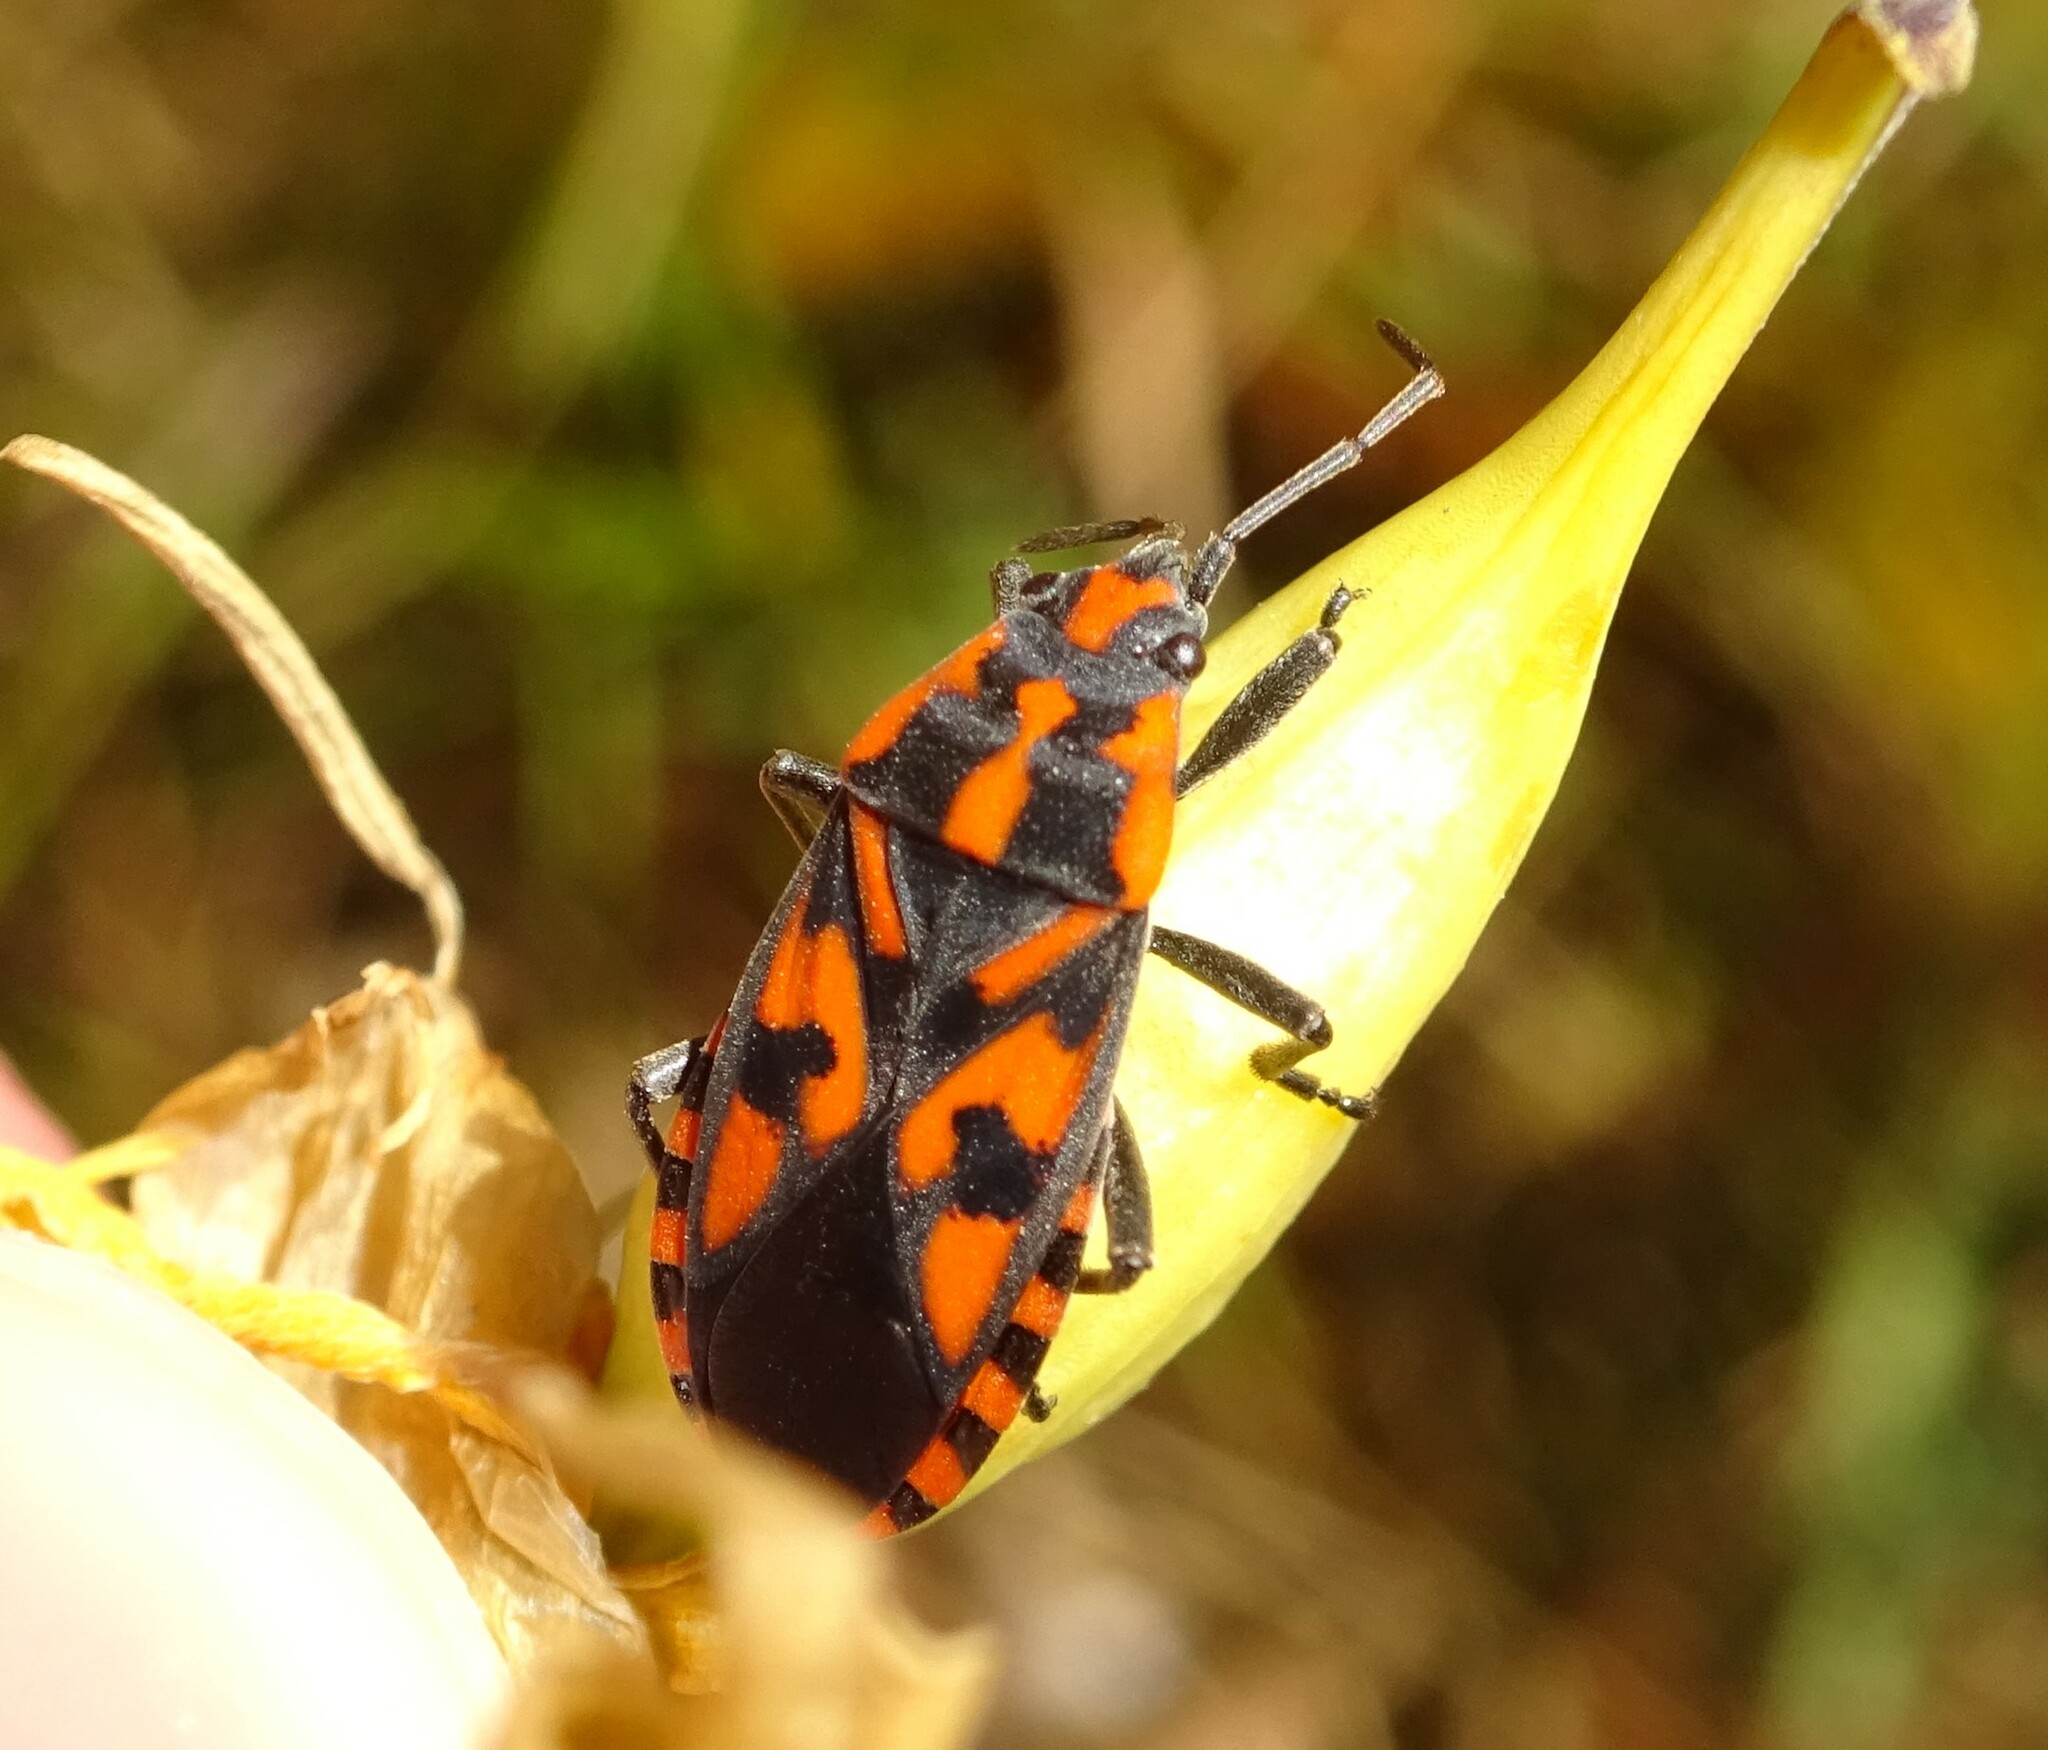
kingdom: Animalia
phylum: Arthropoda
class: Insecta
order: Hemiptera
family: Lygaeidae
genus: Spilostethus
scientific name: Spilostethus saxatilis
